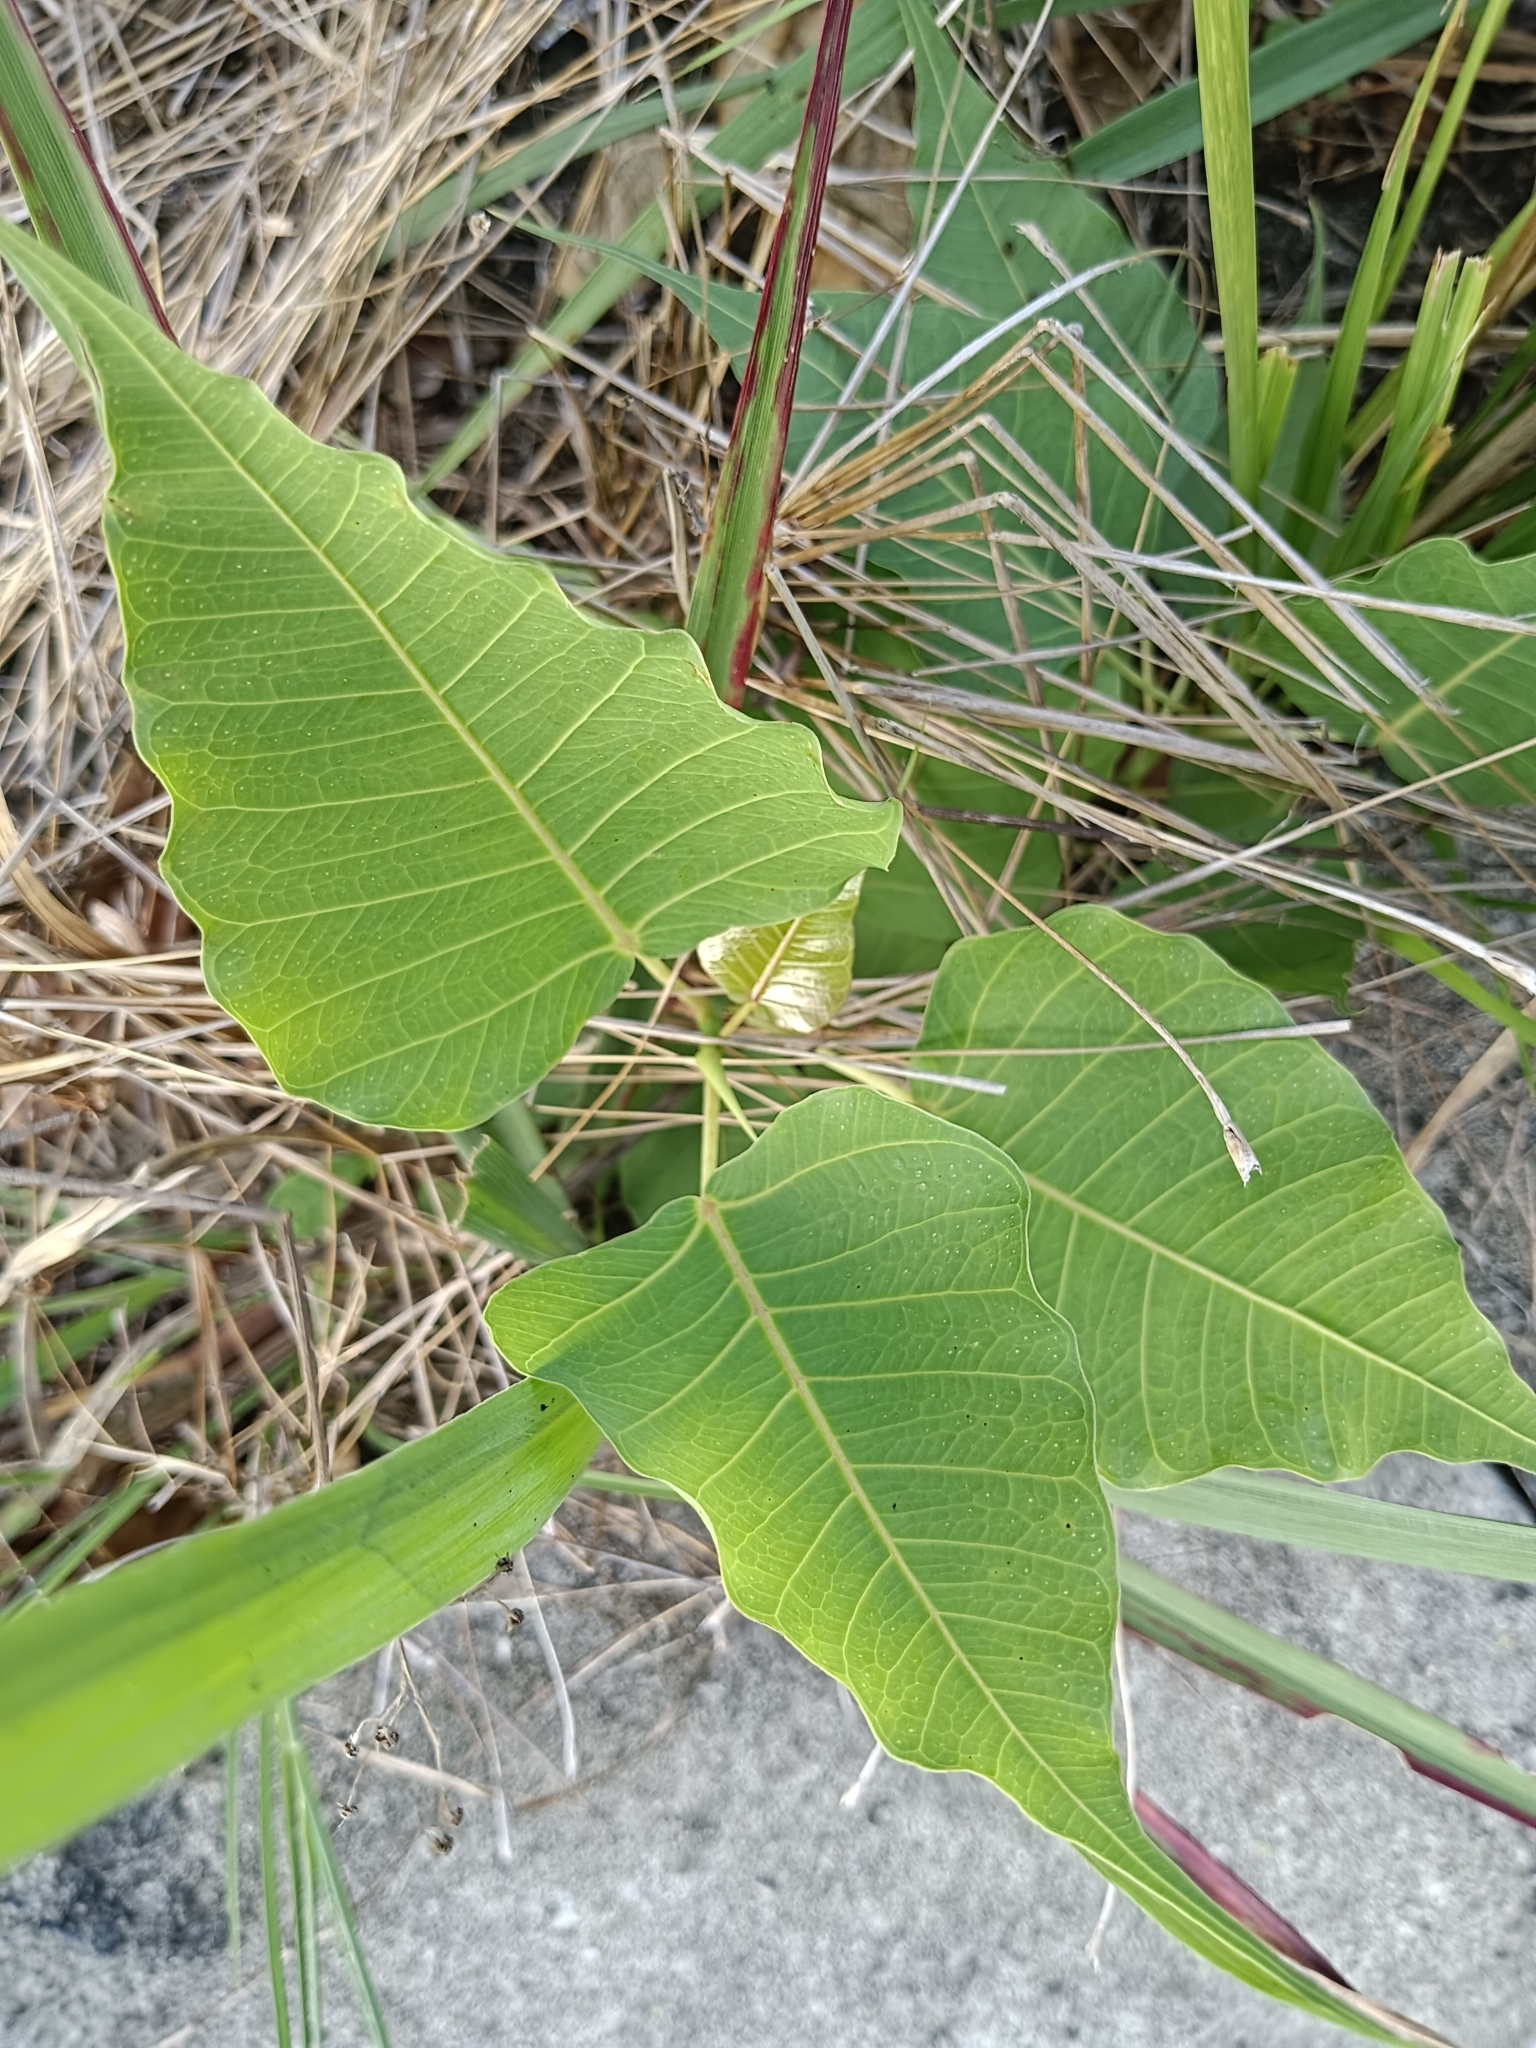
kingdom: Plantae
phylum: Tracheophyta
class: Magnoliopsida
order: Rosales
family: Moraceae
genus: Ficus
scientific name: Ficus religiosa
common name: Bodhi tree
